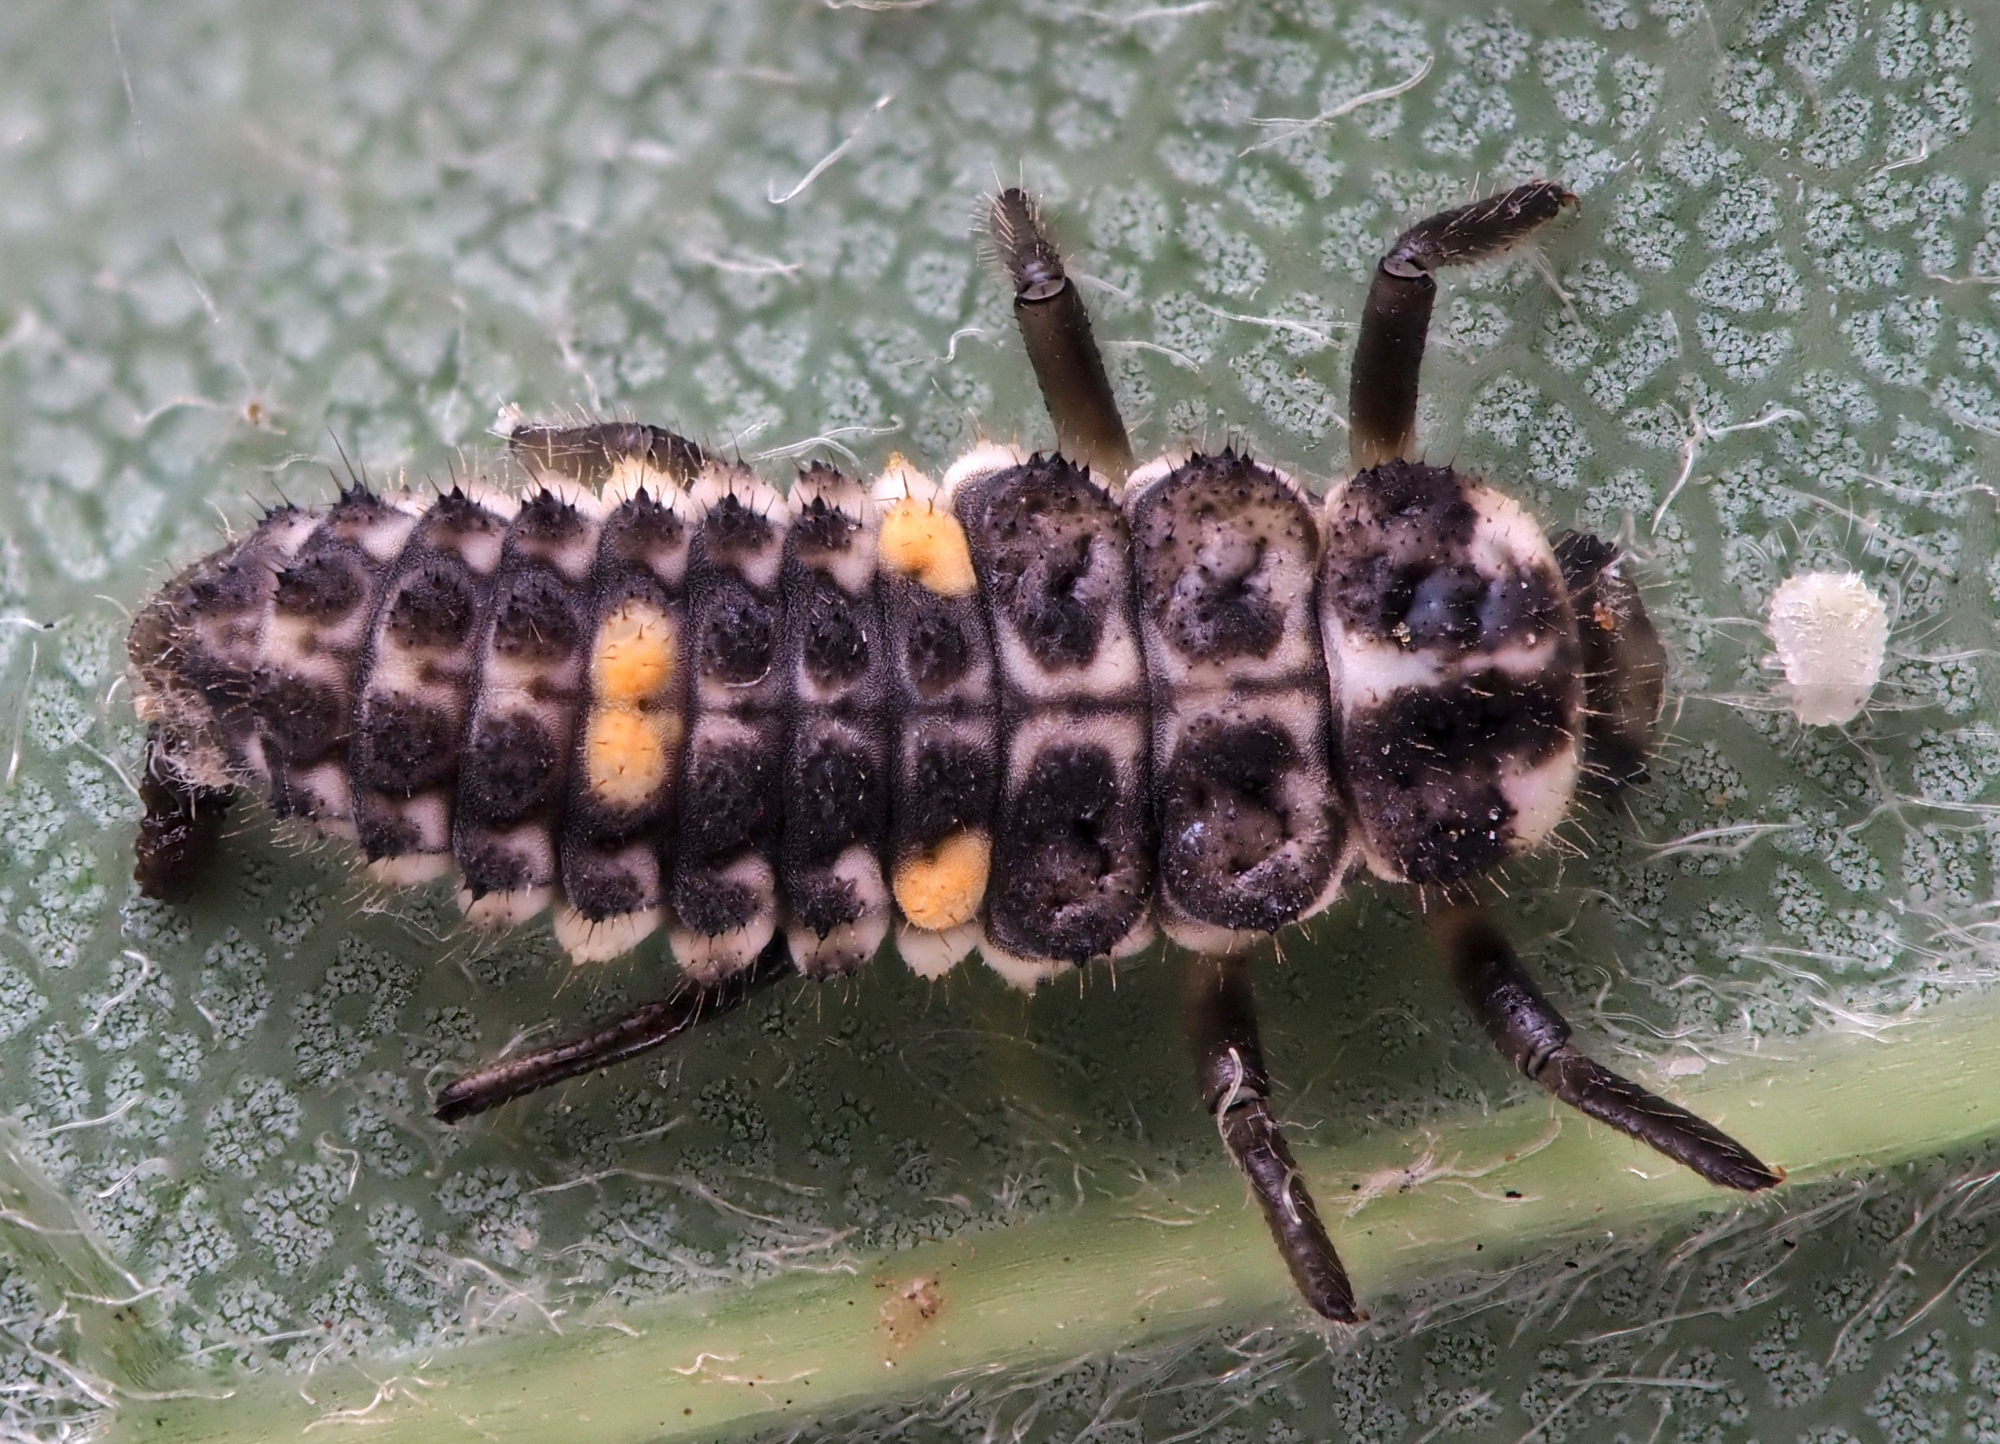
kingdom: Animalia
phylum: Arthropoda
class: Insecta
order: Coleoptera
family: Coccinellidae
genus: Adalia
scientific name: Adalia decempunctata
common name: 10-spot ladybird
